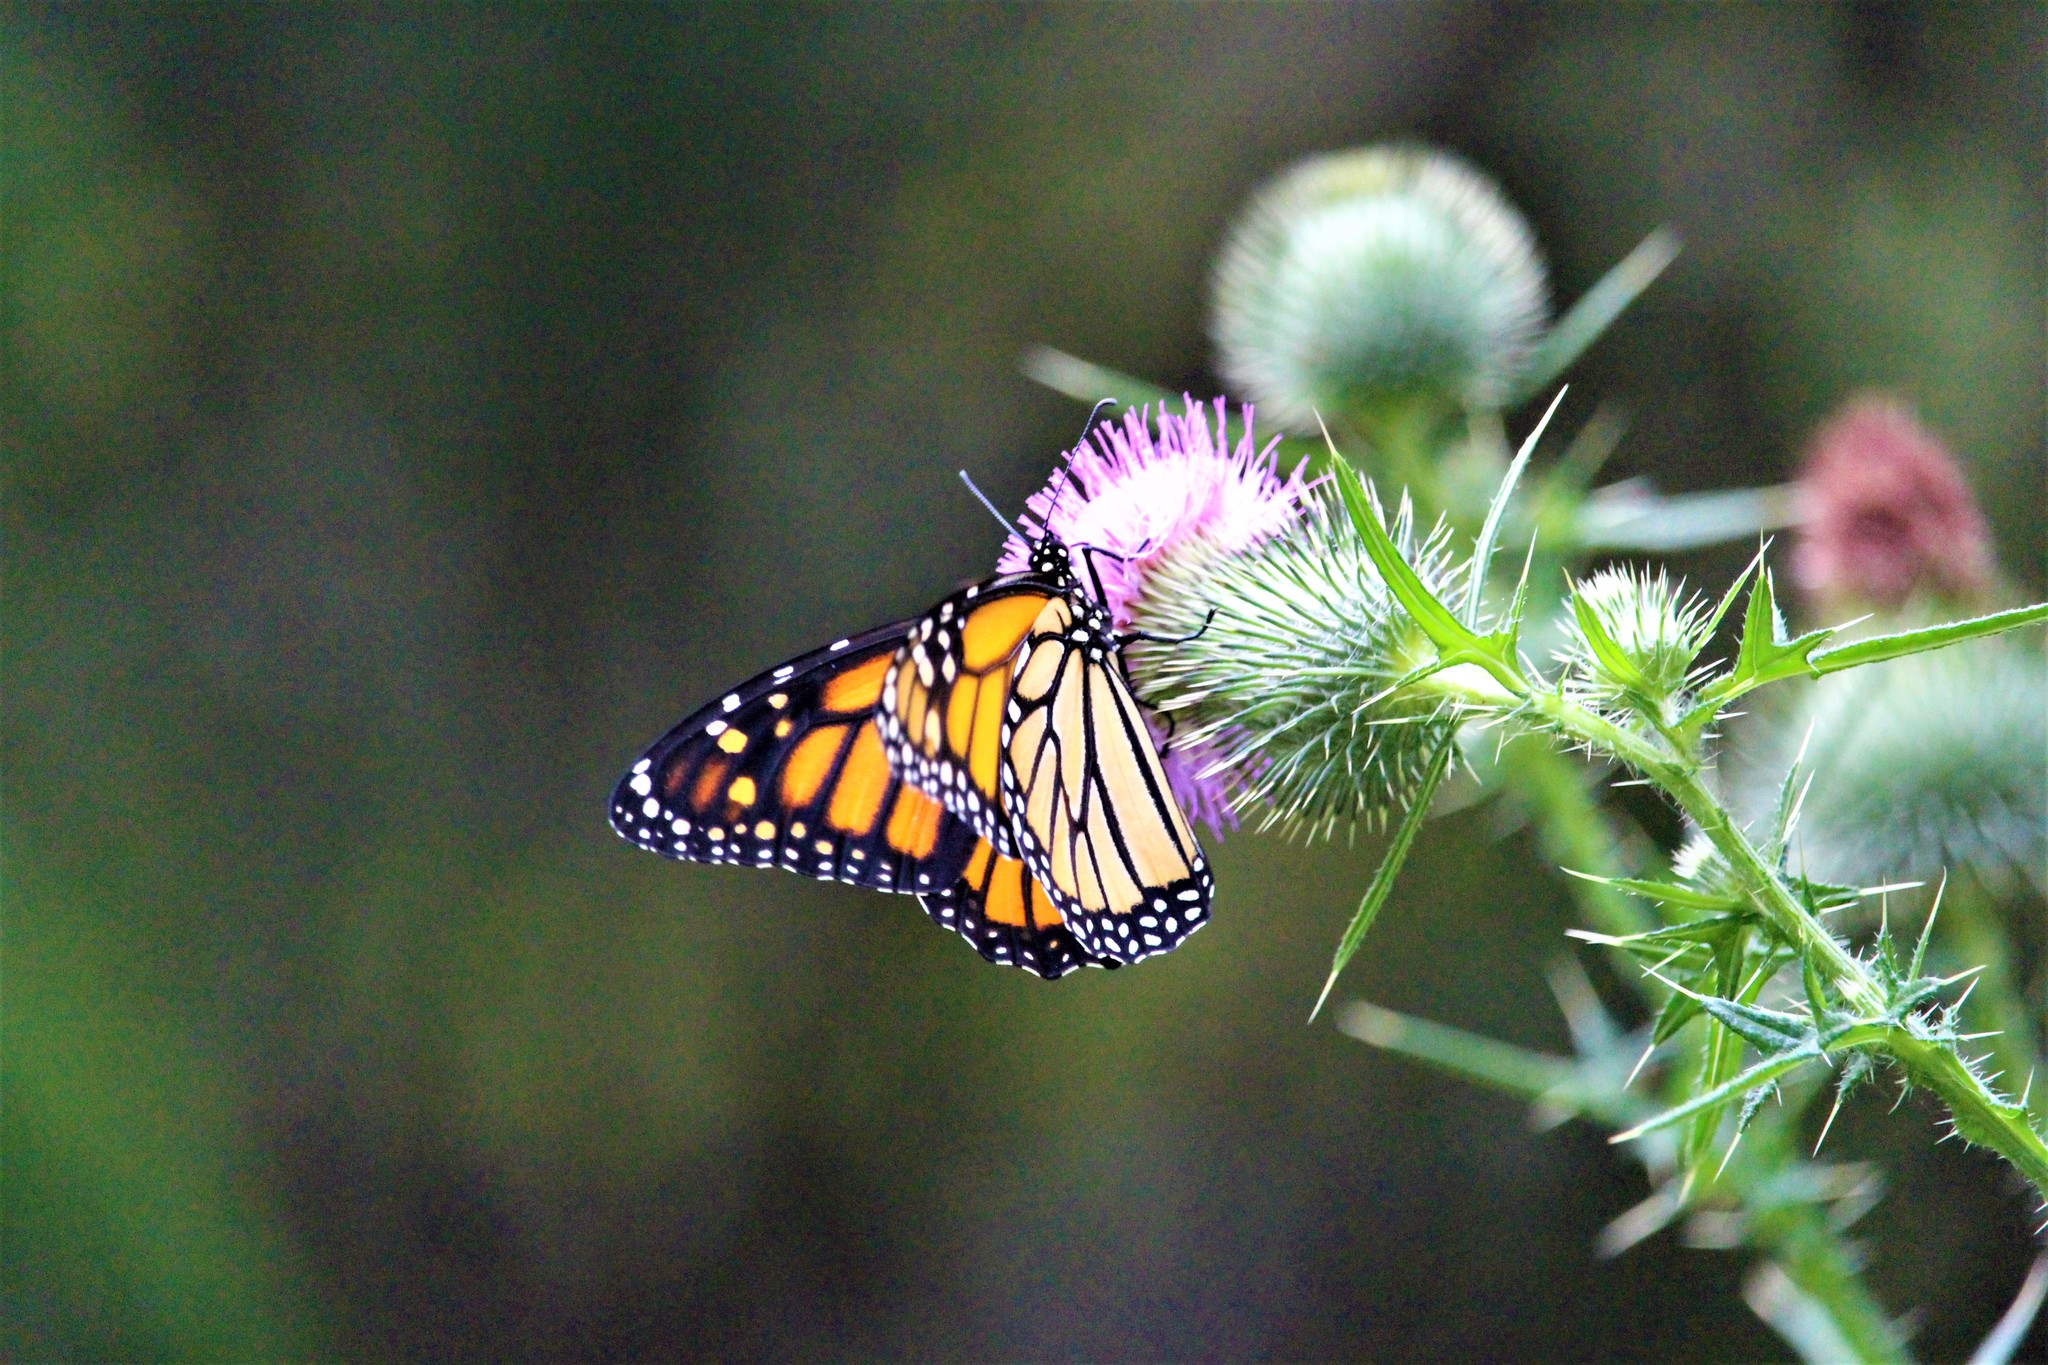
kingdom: Animalia
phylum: Arthropoda
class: Insecta
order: Lepidoptera
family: Nymphalidae
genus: Danaus
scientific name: Danaus plexippus
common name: Monarch
